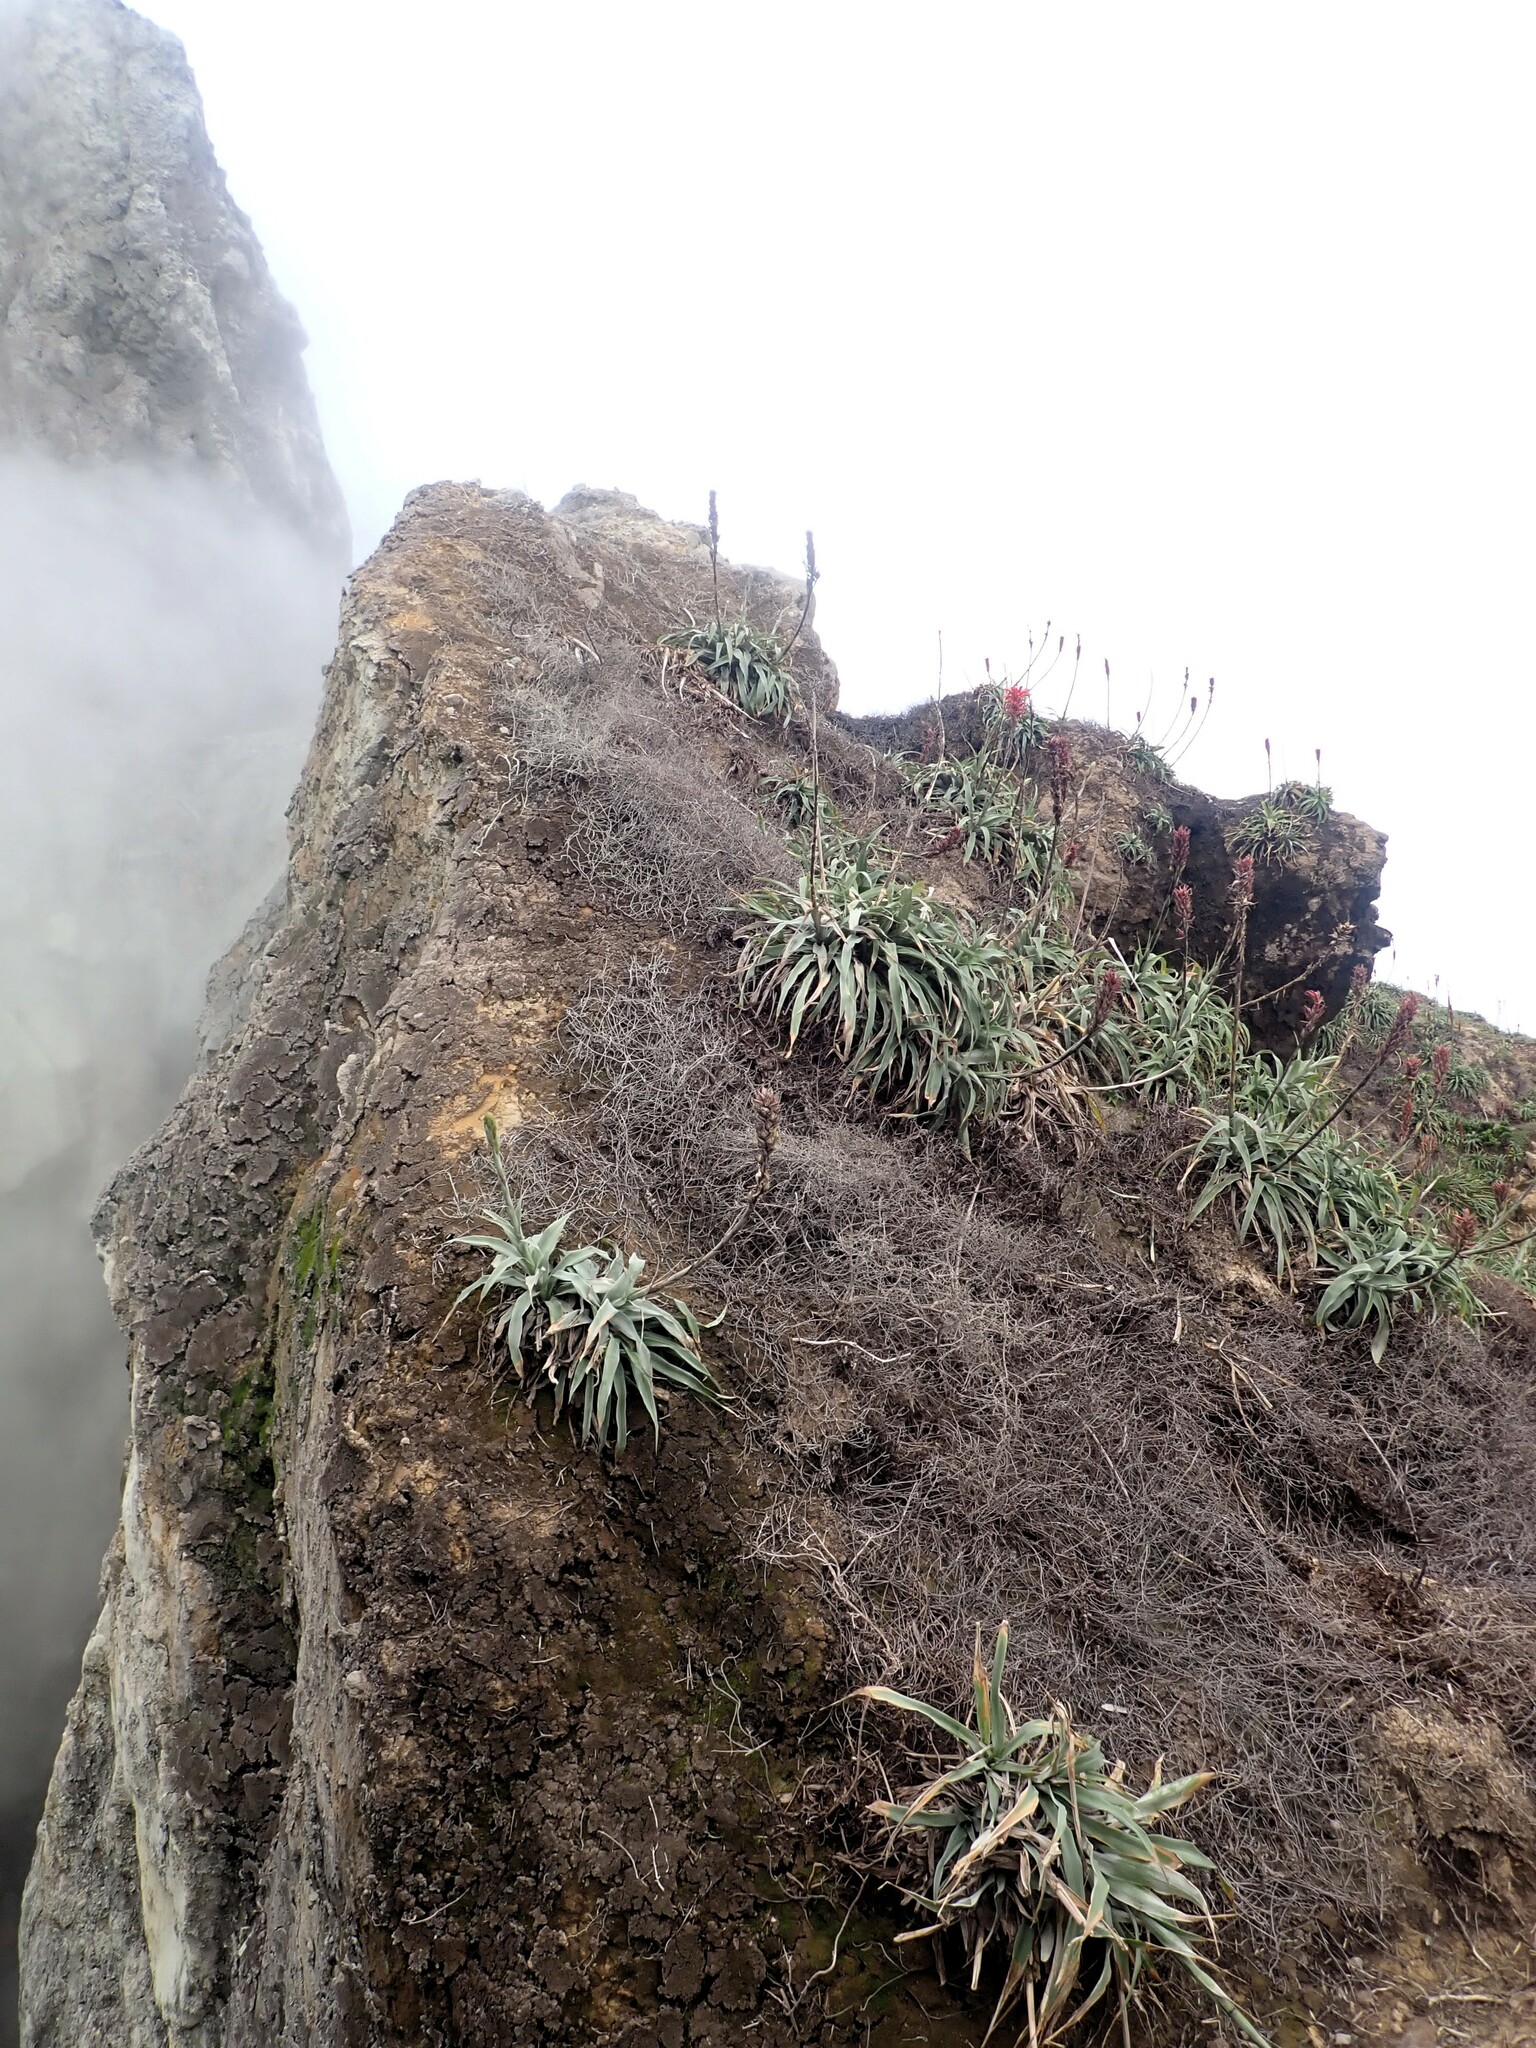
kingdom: Plantae
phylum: Tracheophyta
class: Liliopsida
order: Poales
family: Bromeliaceae
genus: Pitcairnia
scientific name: Pitcairnia bifrons
